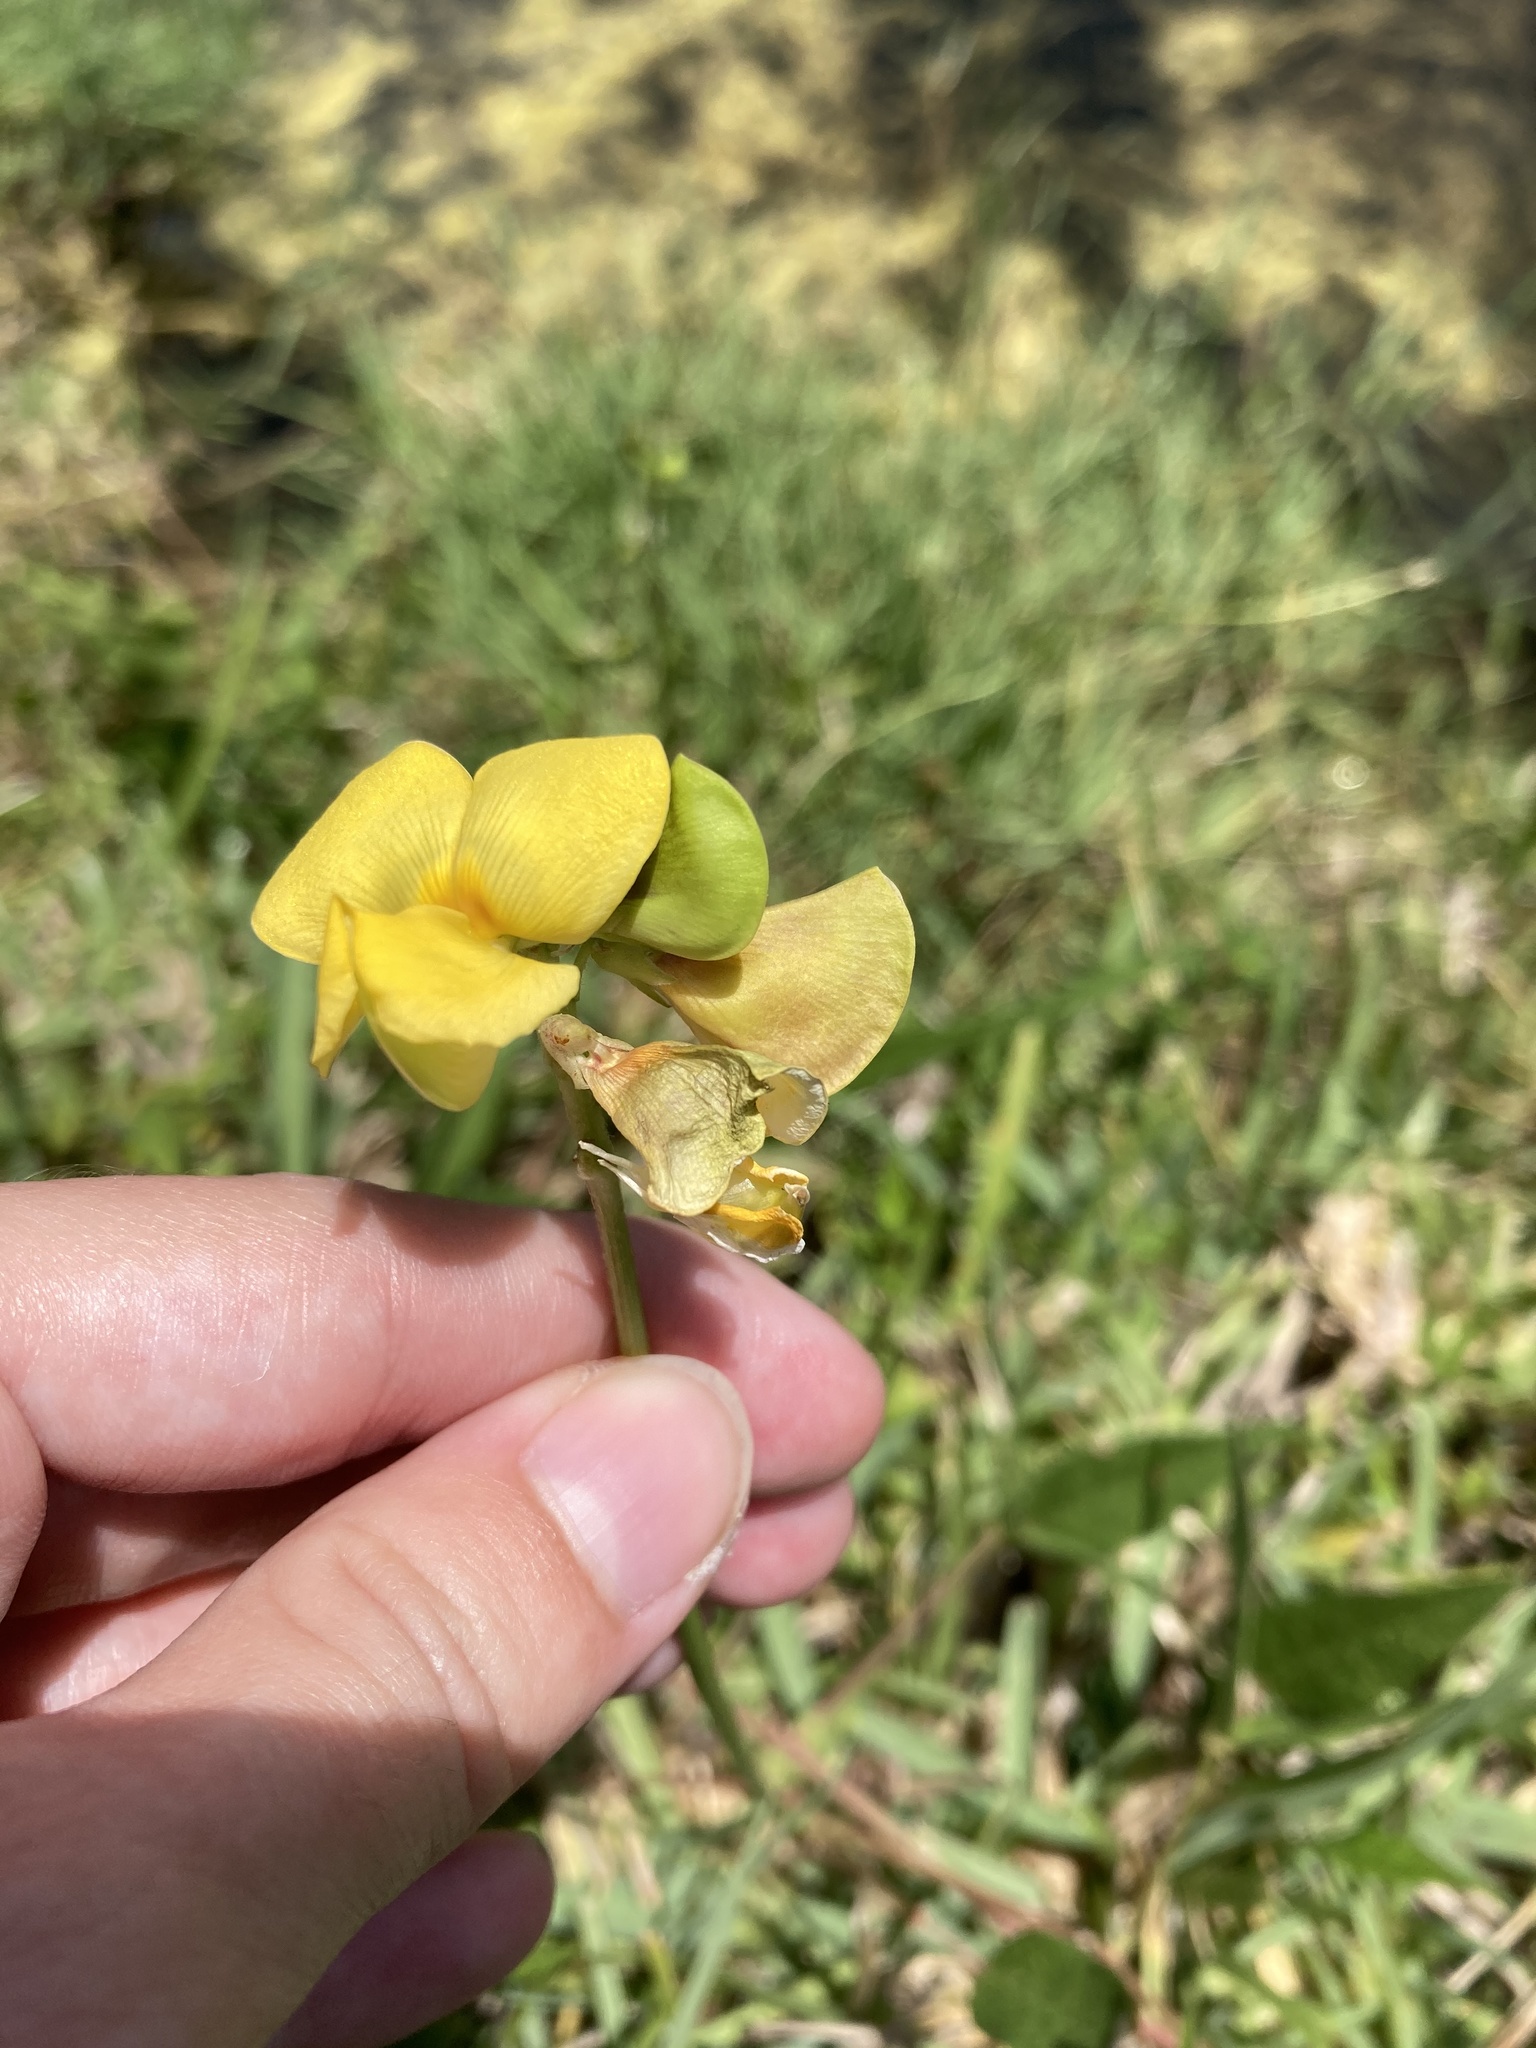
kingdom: Plantae
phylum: Tracheophyta
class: Magnoliopsida
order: Fabales
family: Fabaceae
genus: Vigna
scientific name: Vigna luteola
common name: Hairypod cowpea
